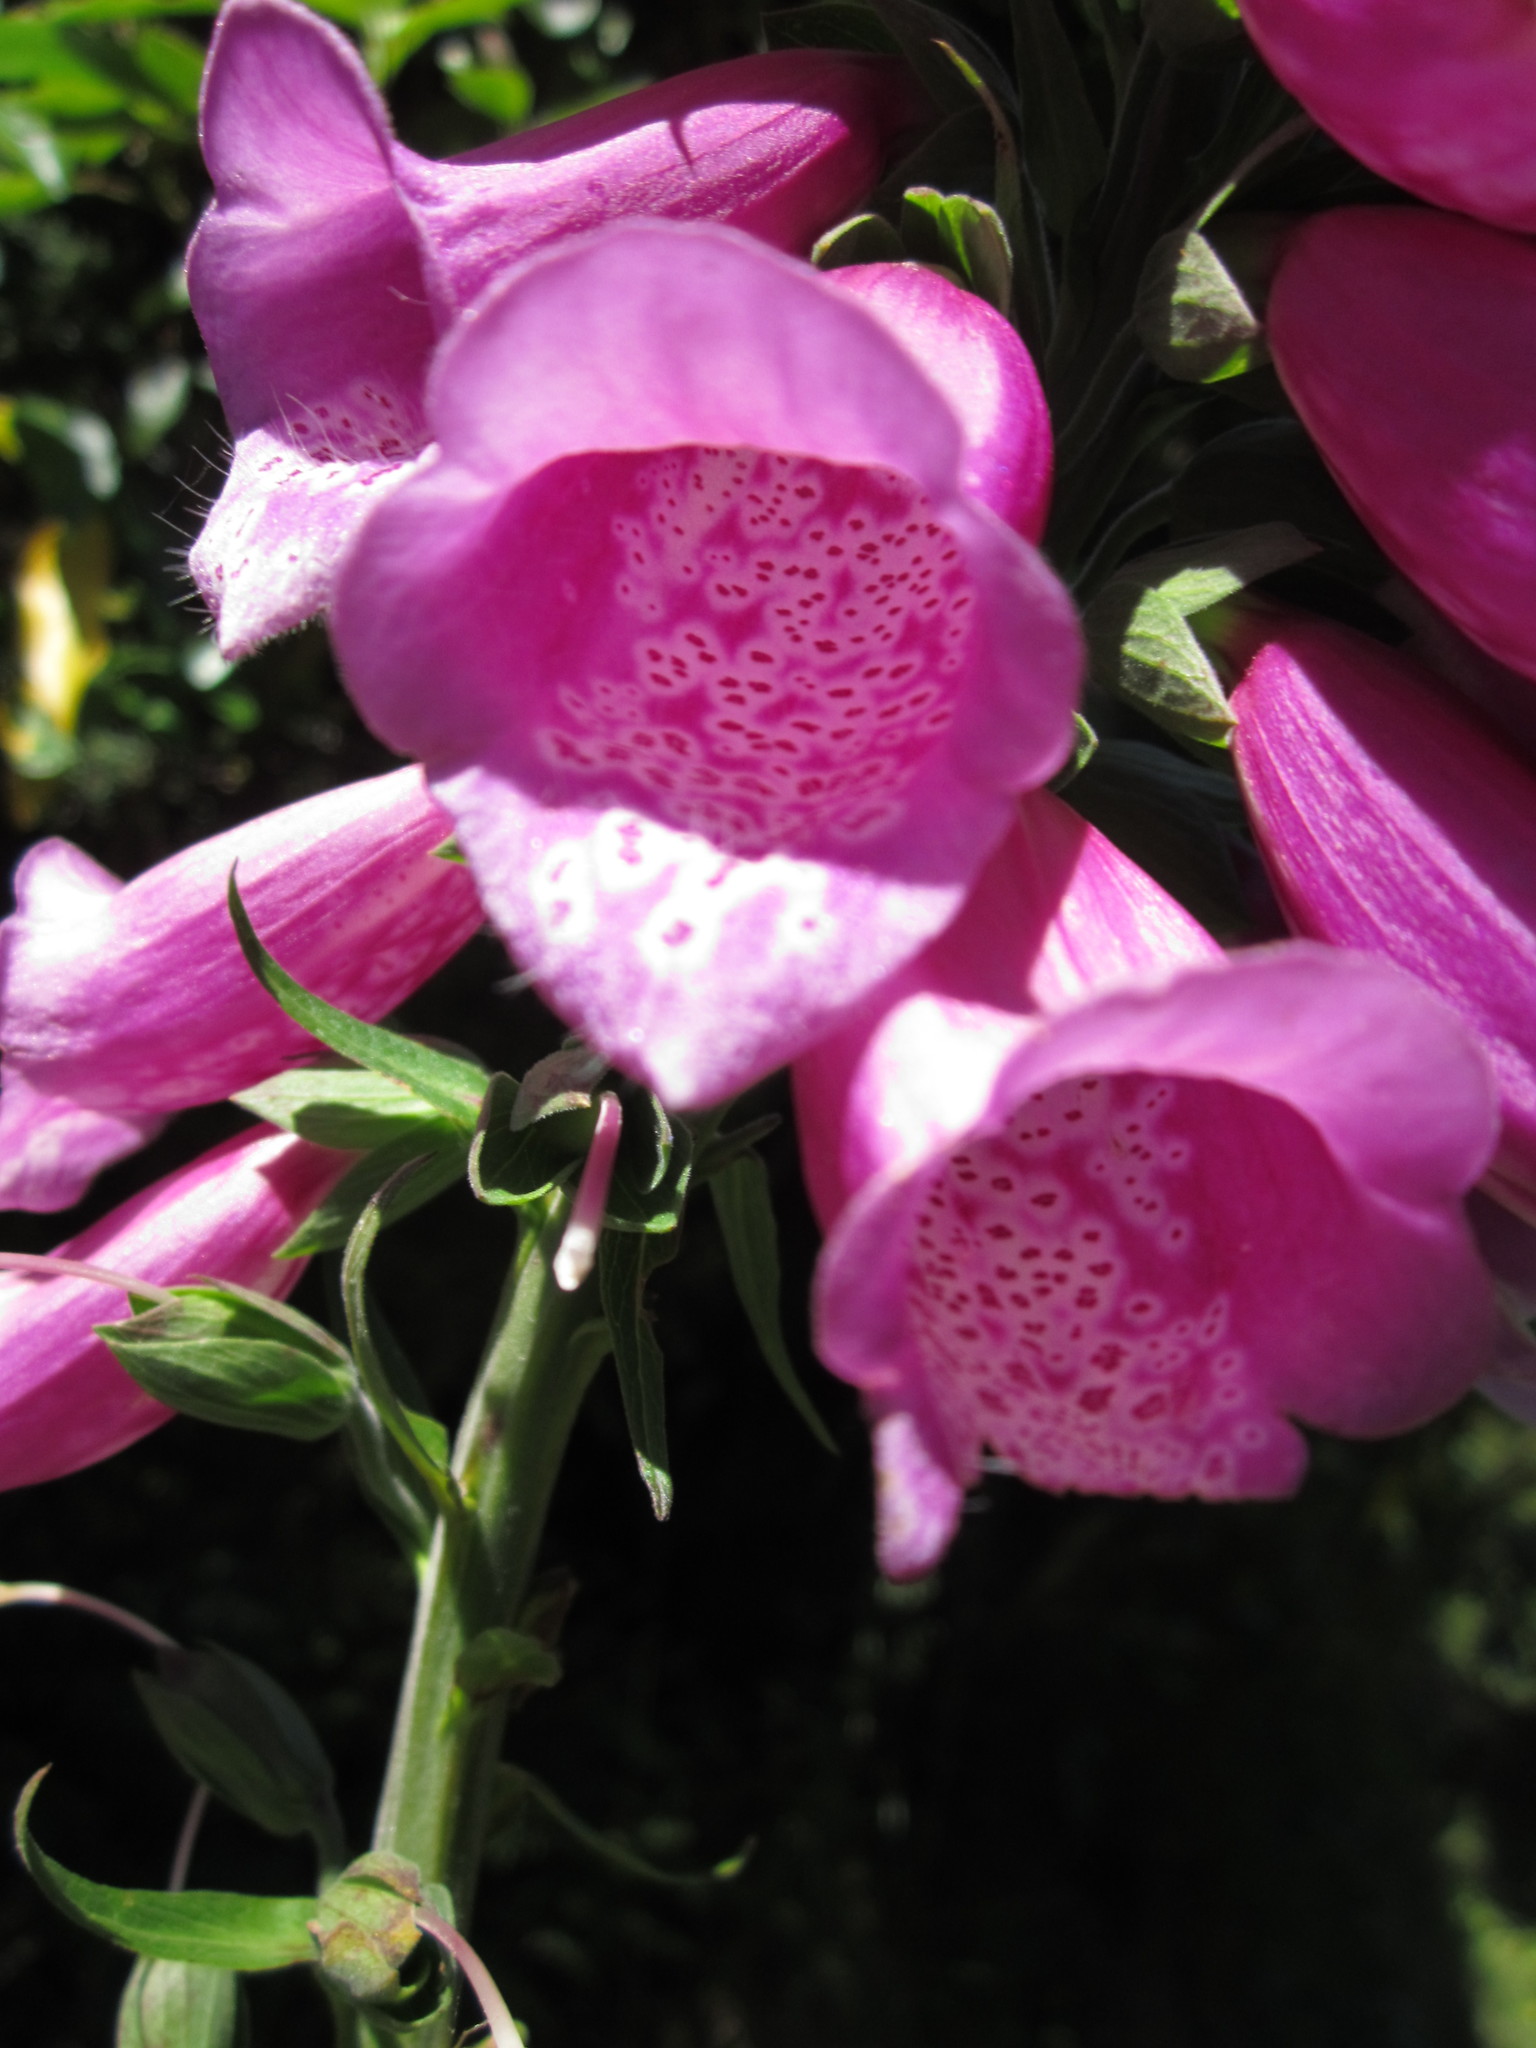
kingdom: Plantae
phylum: Tracheophyta
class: Magnoliopsida
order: Lamiales
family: Plantaginaceae
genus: Digitalis
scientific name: Digitalis purpurea
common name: Foxglove
